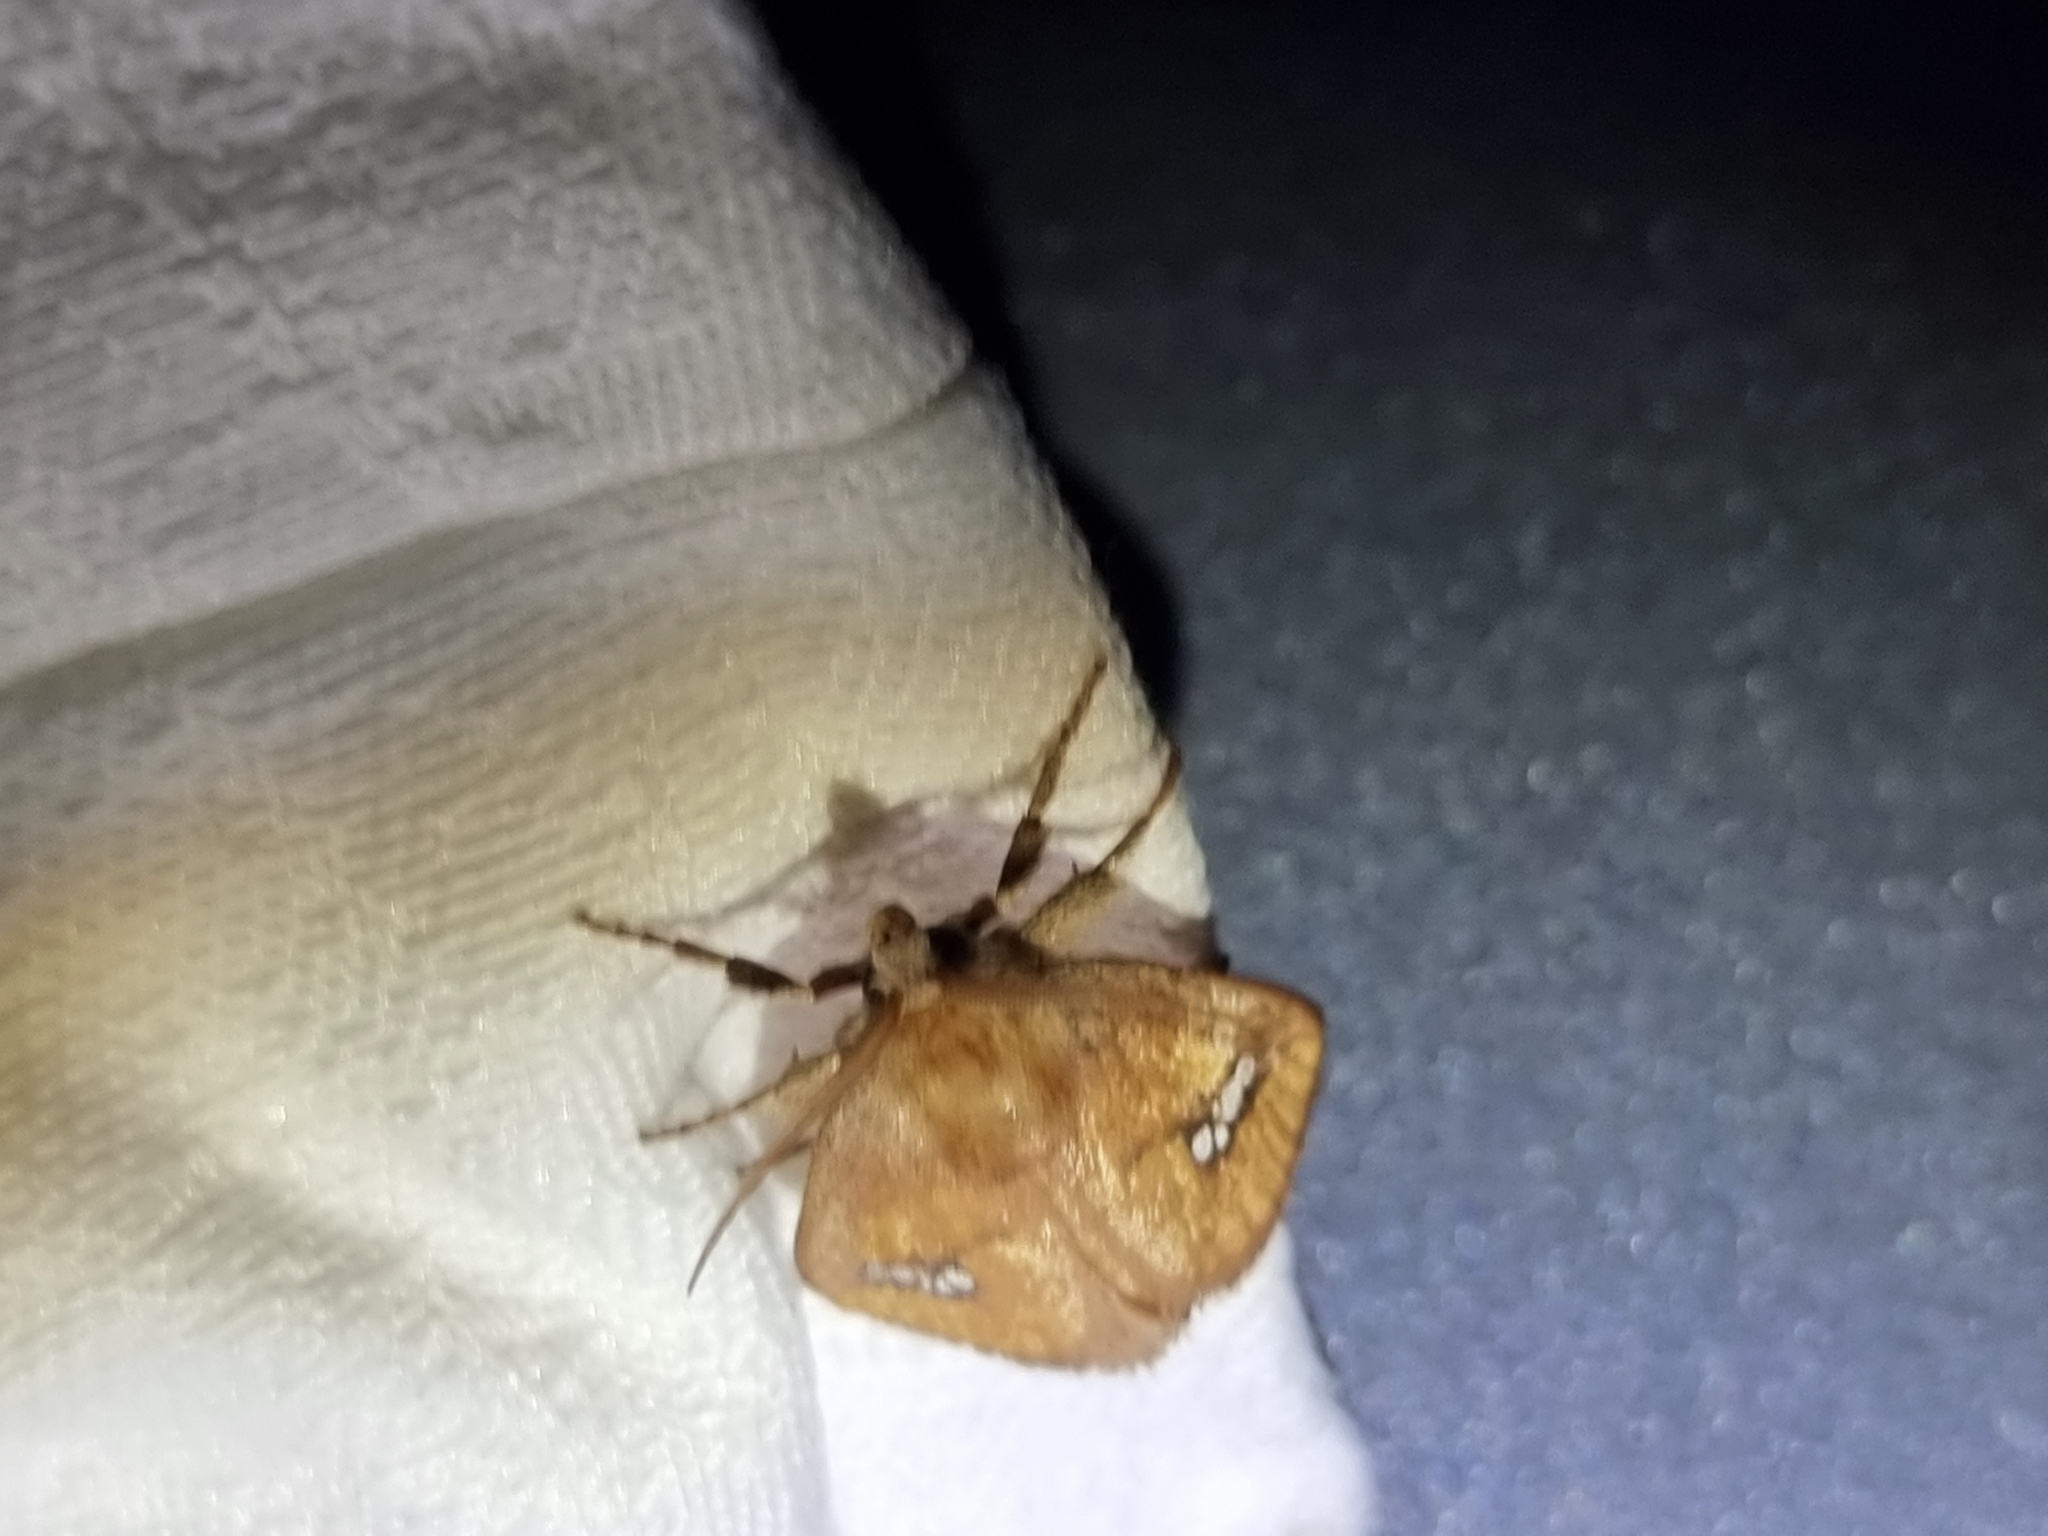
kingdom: Animalia
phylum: Arthropoda
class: Insecta
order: Lepidoptera
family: Limacodidae
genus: Hedraea
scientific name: Hedraea quadridens
